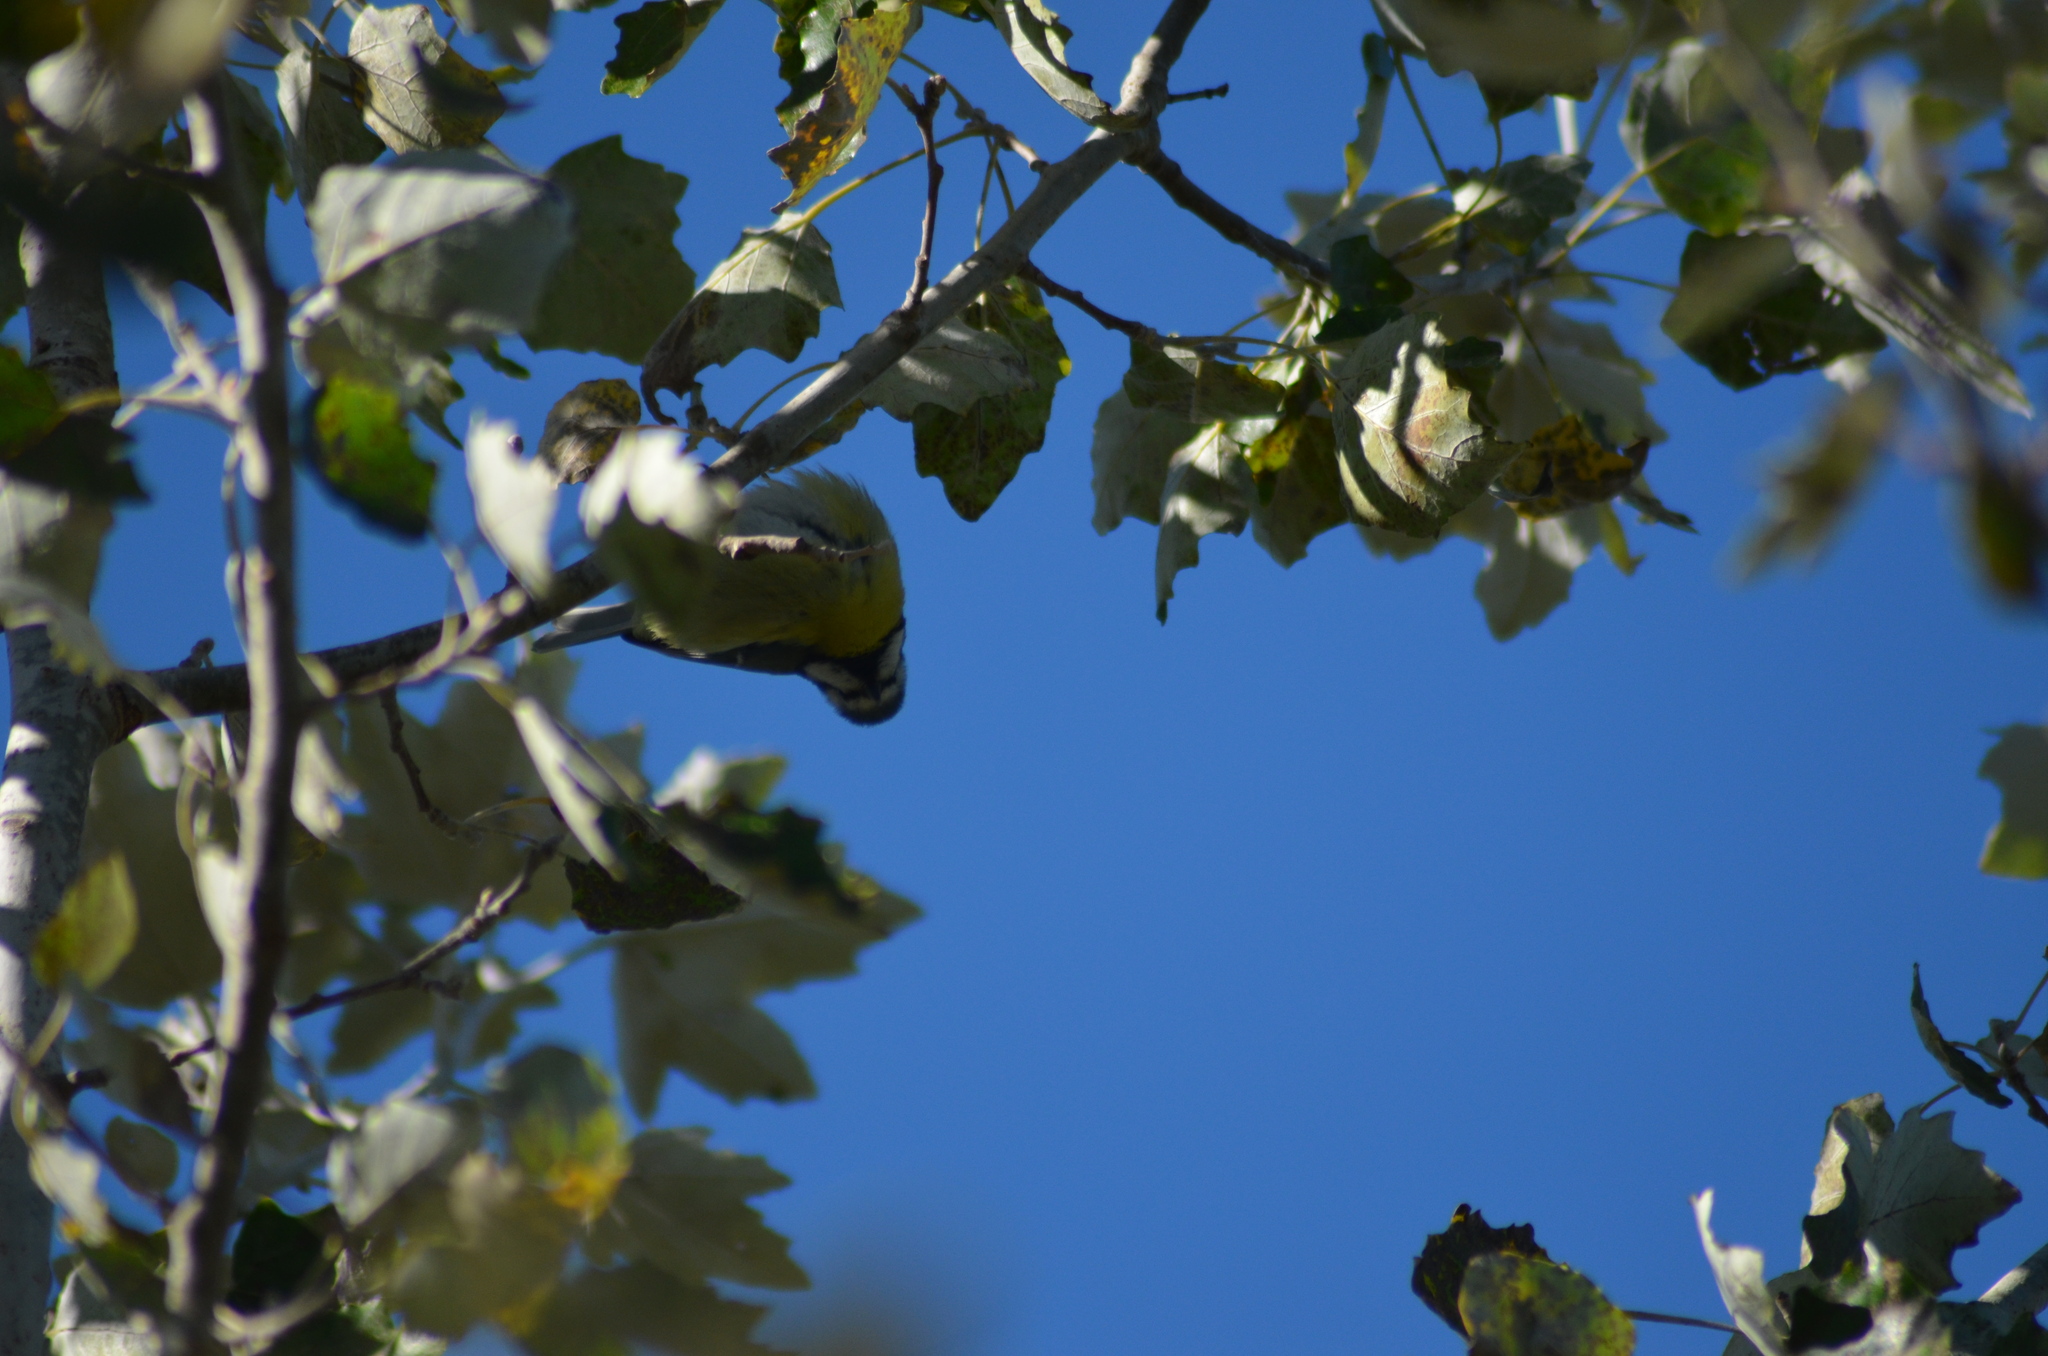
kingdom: Animalia
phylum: Chordata
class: Aves
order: Passeriformes
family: Paridae
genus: Cyanistes
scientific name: Cyanistes caeruleus
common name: Eurasian blue tit
